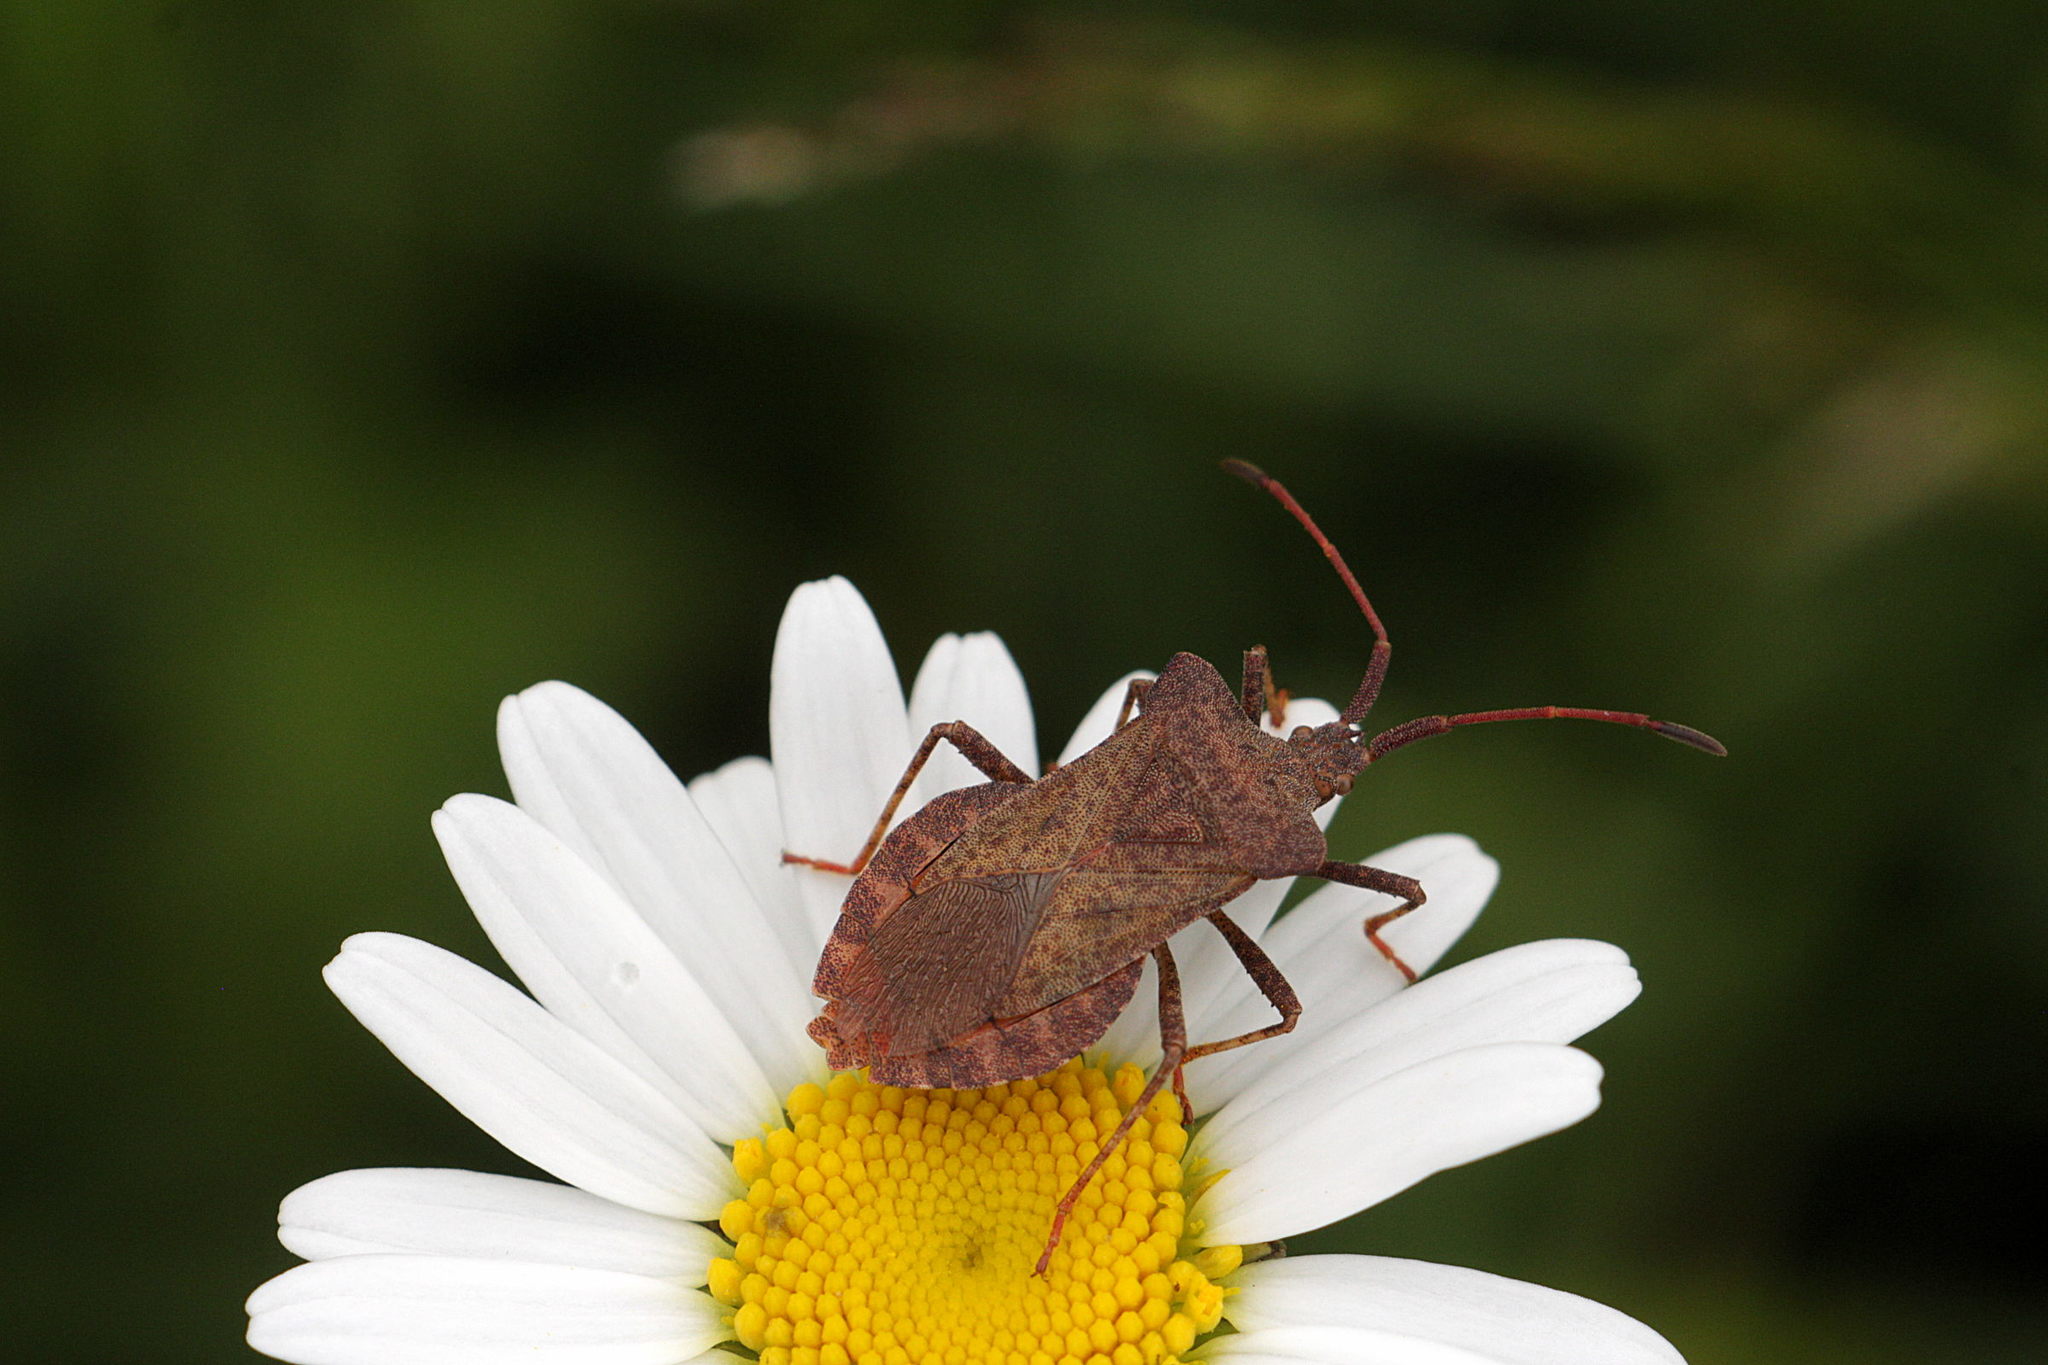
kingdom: Animalia
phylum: Arthropoda
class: Insecta
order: Hemiptera
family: Coreidae
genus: Coreus
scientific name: Coreus marginatus
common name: Dock bug
